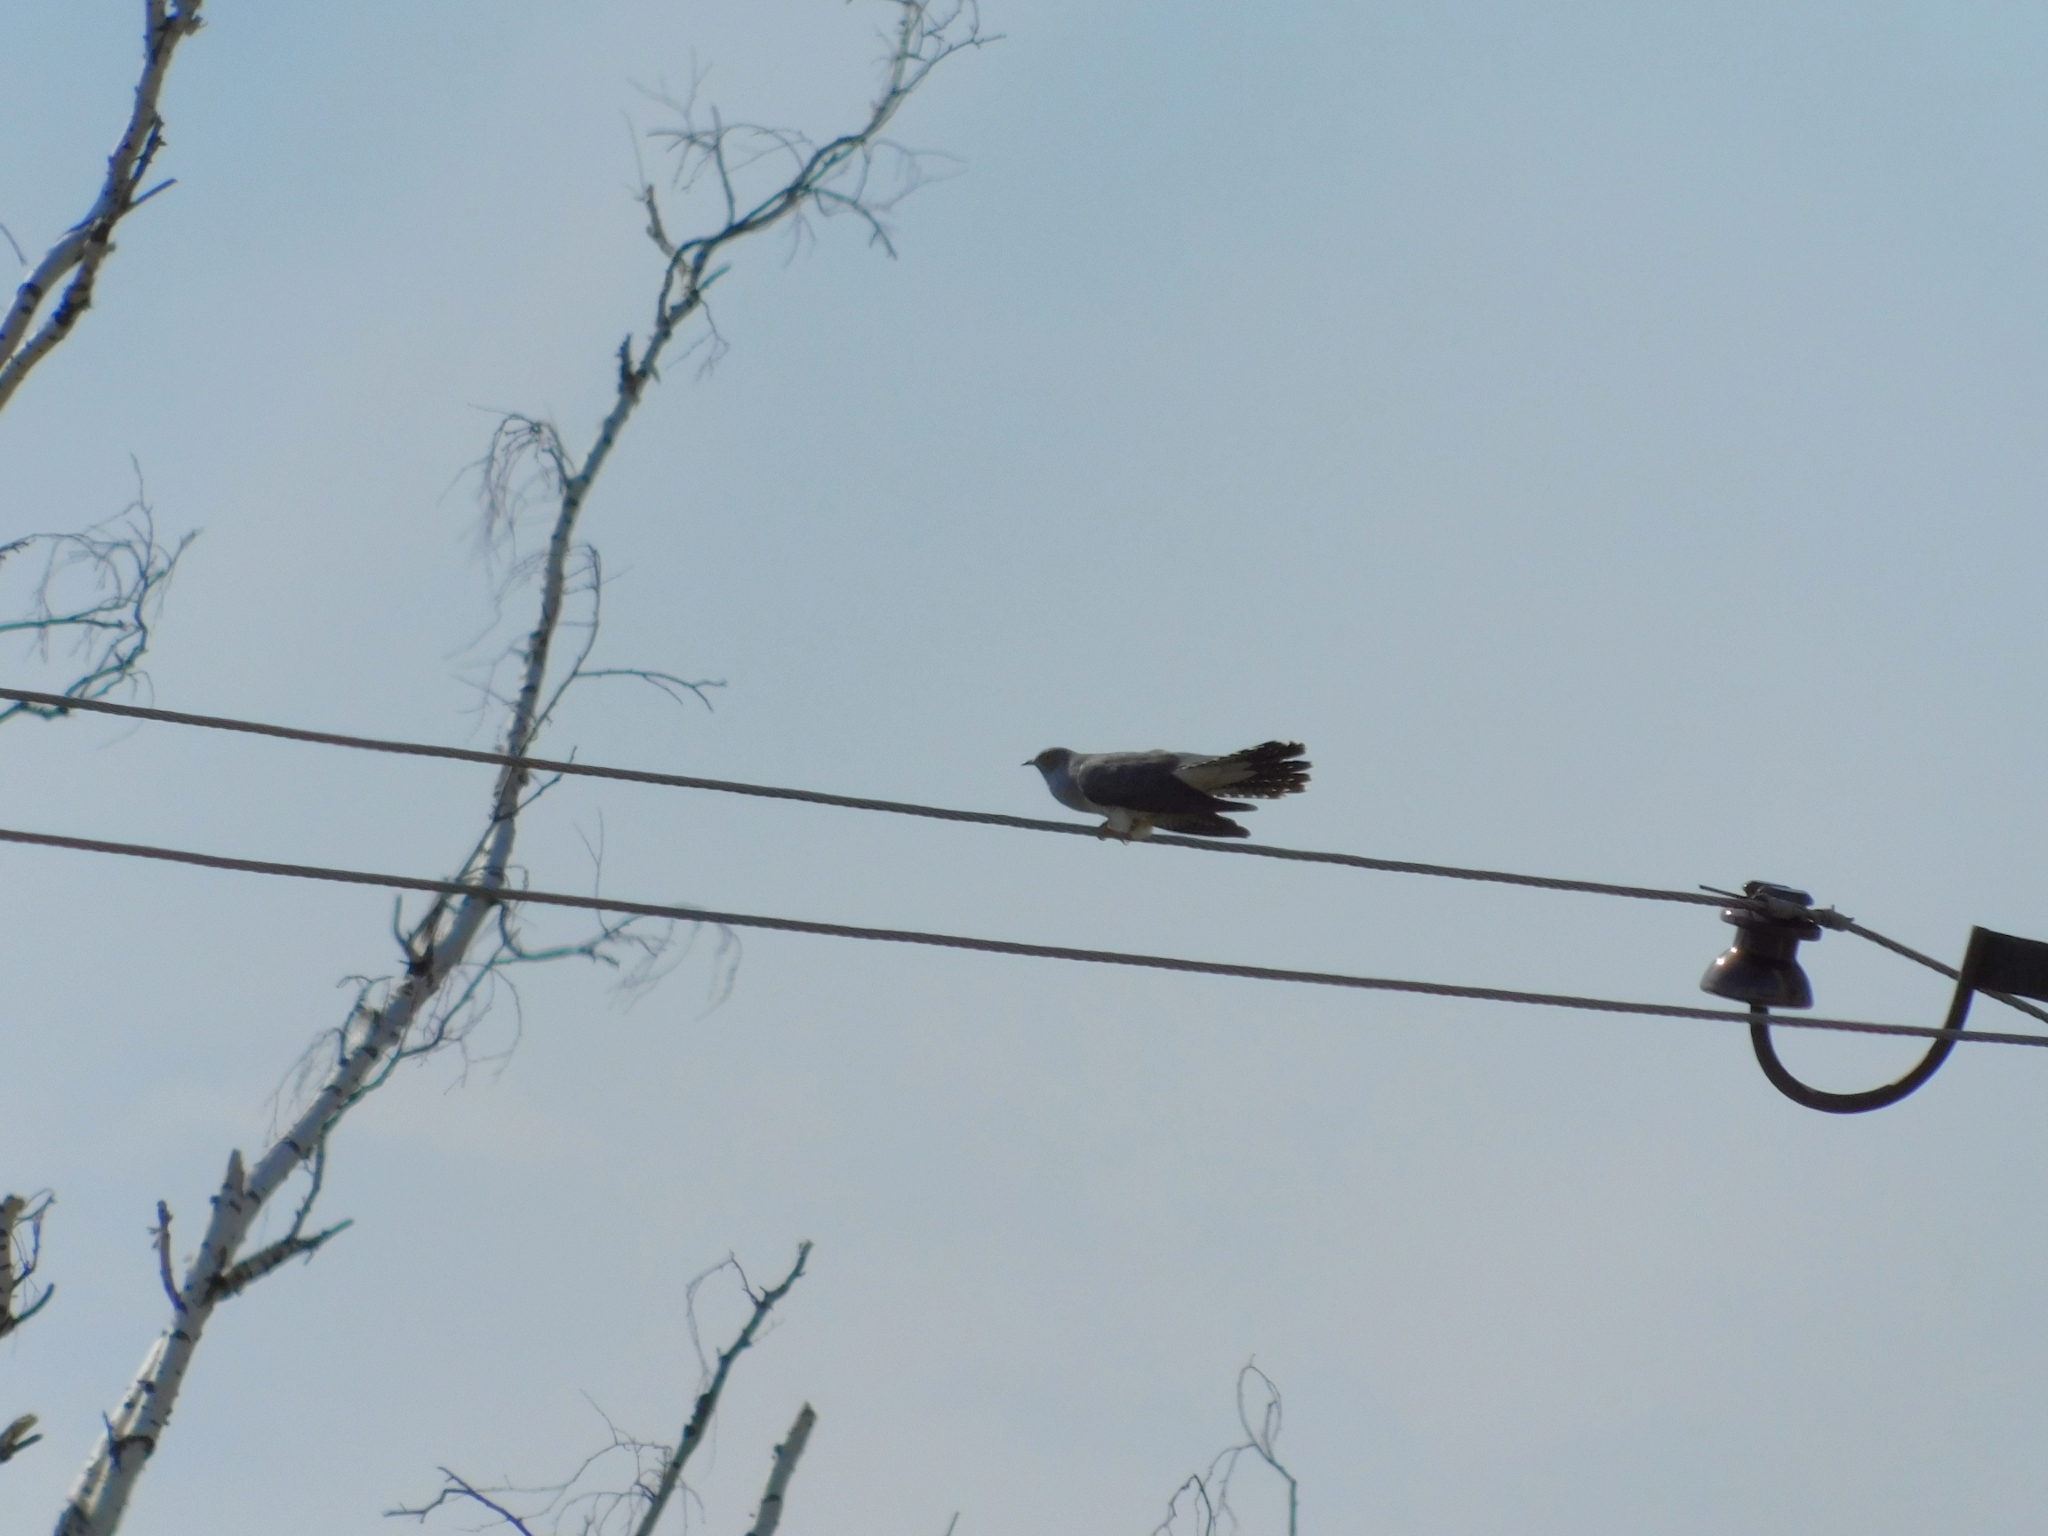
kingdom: Animalia
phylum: Chordata
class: Aves
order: Cuculiformes
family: Cuculidae
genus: Cuculus
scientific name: Cuculus canorus
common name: Common cuckoo
